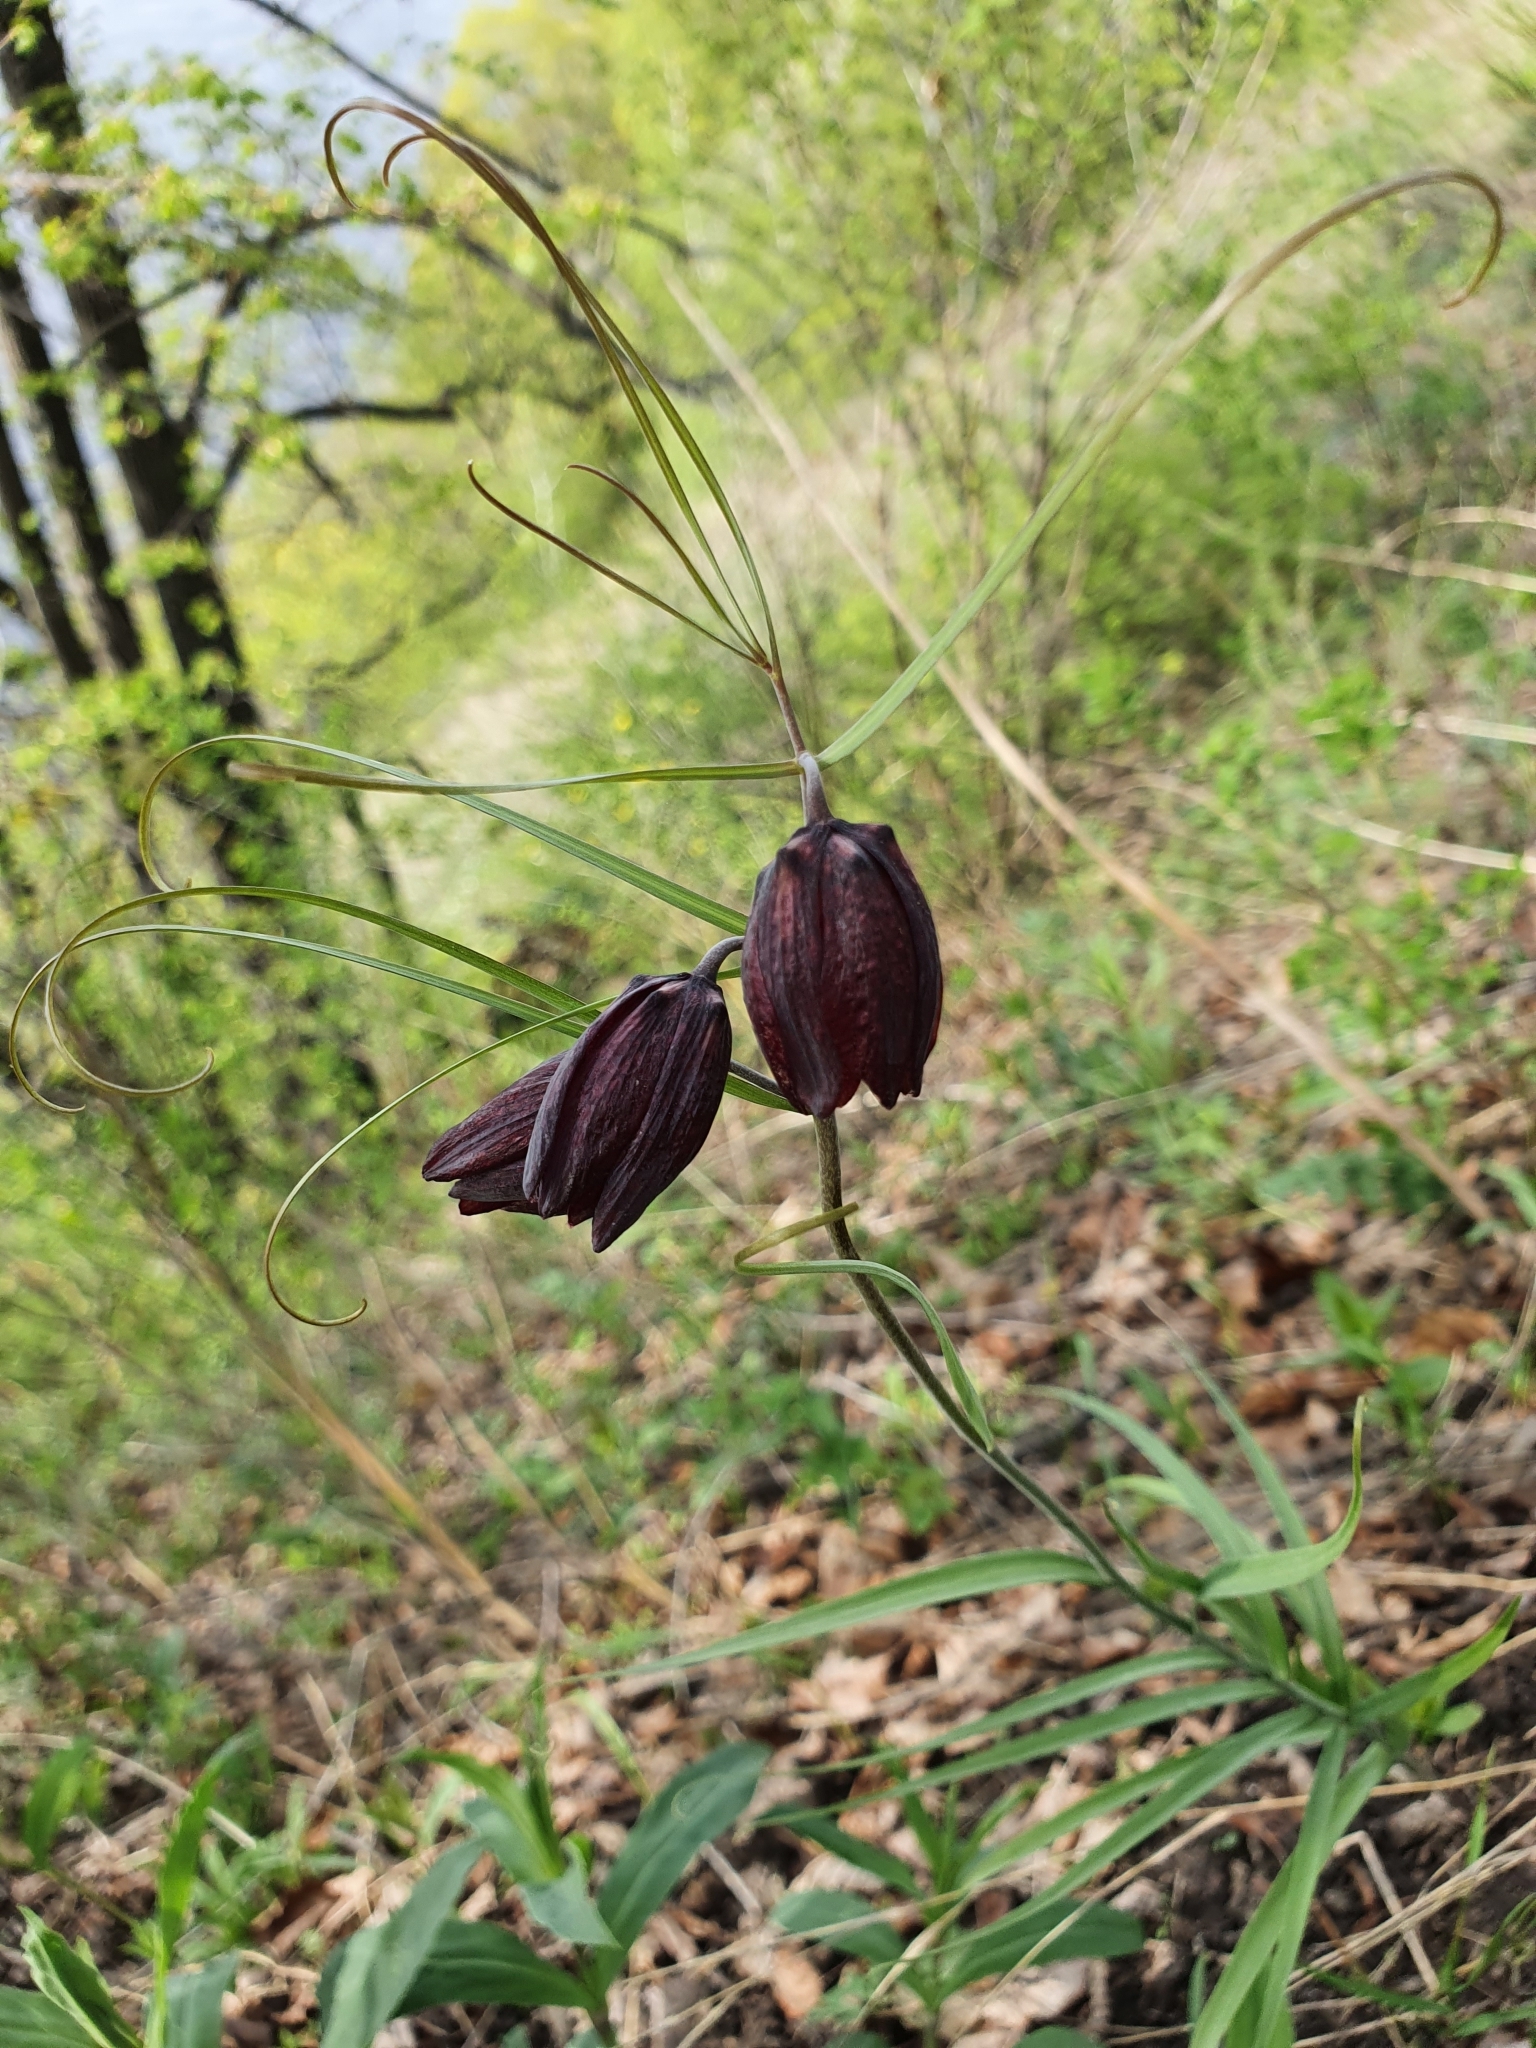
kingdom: Plantae
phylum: Tracheophyta
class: Liliopsida
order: Liliales
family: Liliaceae
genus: Fritillaria
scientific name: Fritillaria ruthenica
